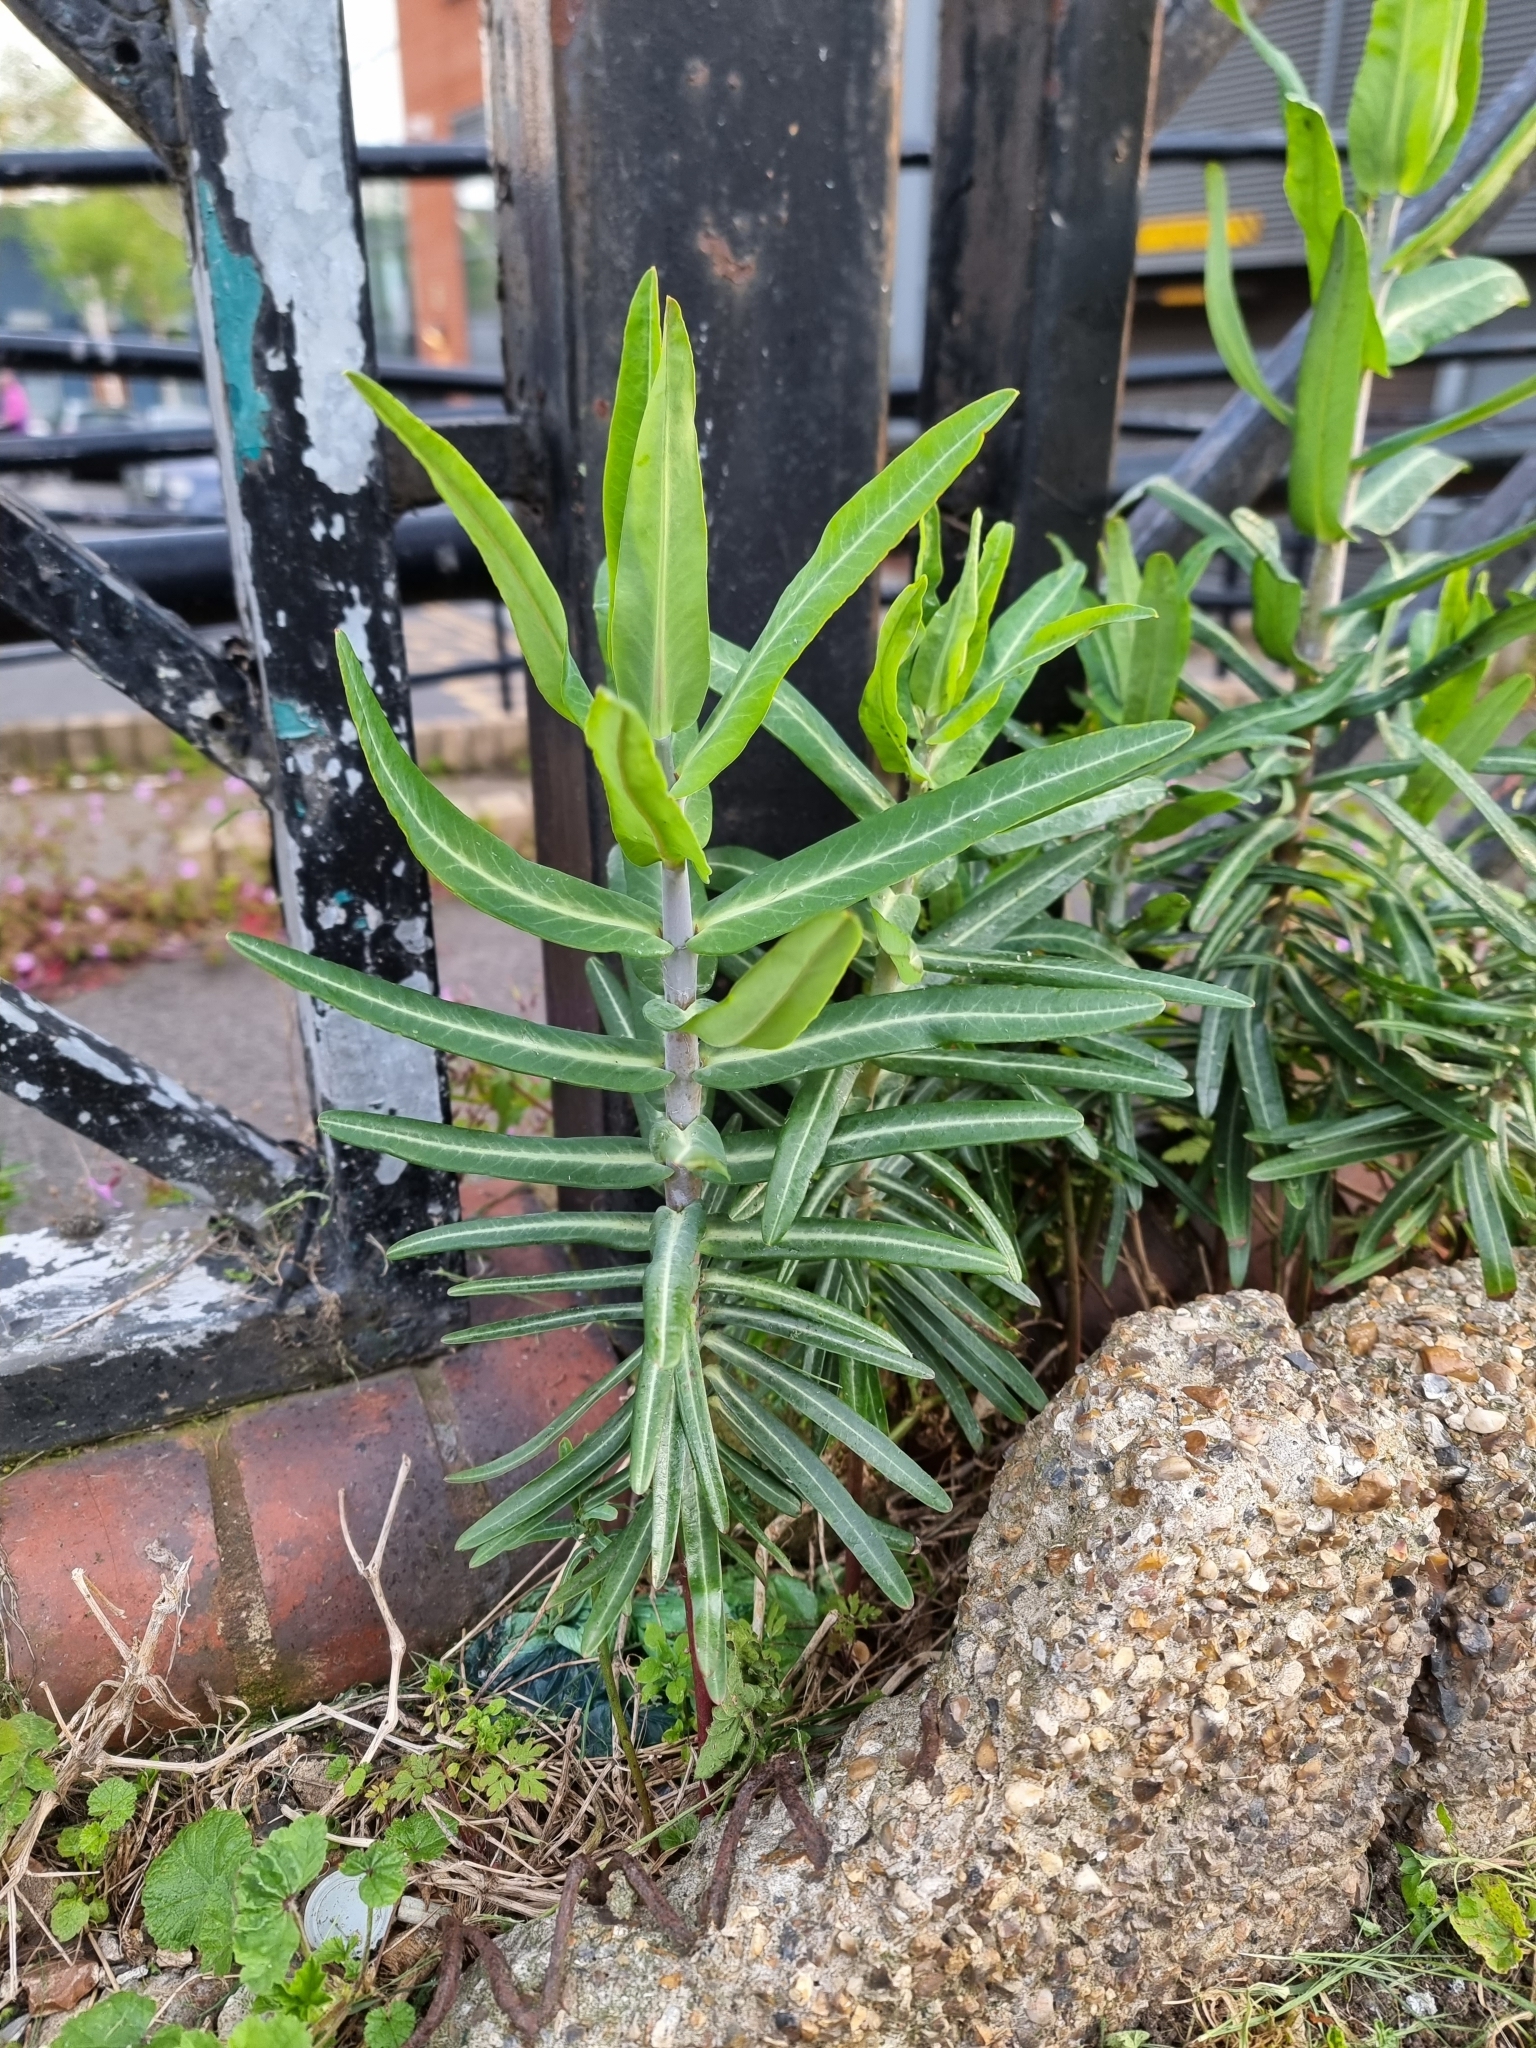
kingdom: Plantae
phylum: Tracheophyta
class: Magnoliopsida
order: Malpighiales
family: Euphorbiaceae
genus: Euphorbia
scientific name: Euphorbia lathyris
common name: Caper spurge
